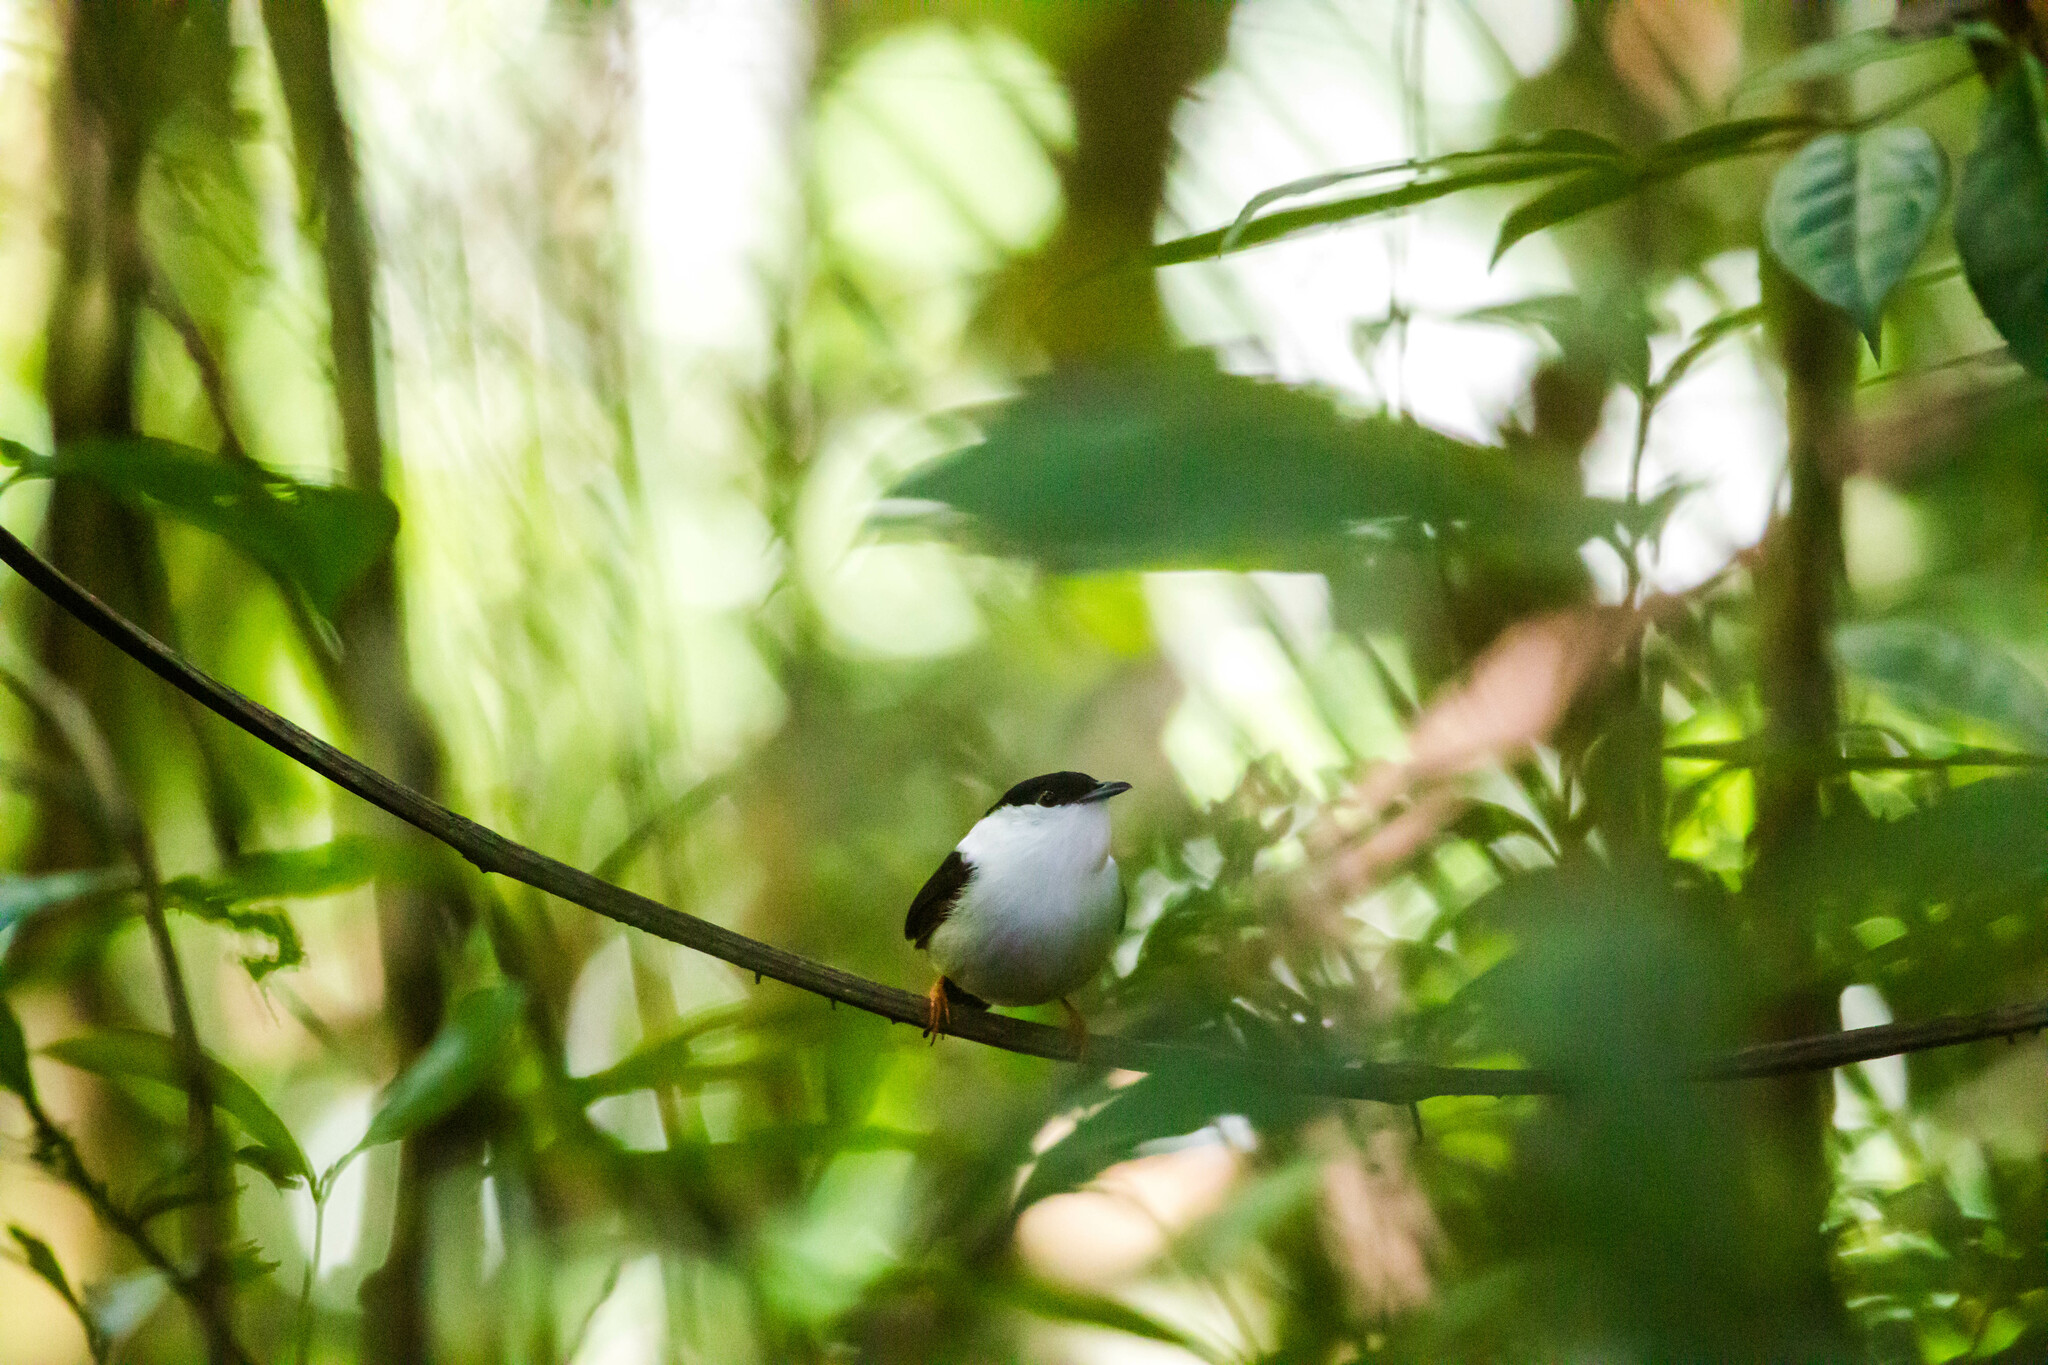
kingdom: Animalia
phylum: Chordata
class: Aves
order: Passeriformes
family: Pipridae
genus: Manacus
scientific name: Manacus manacus
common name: White-bearded manakin
